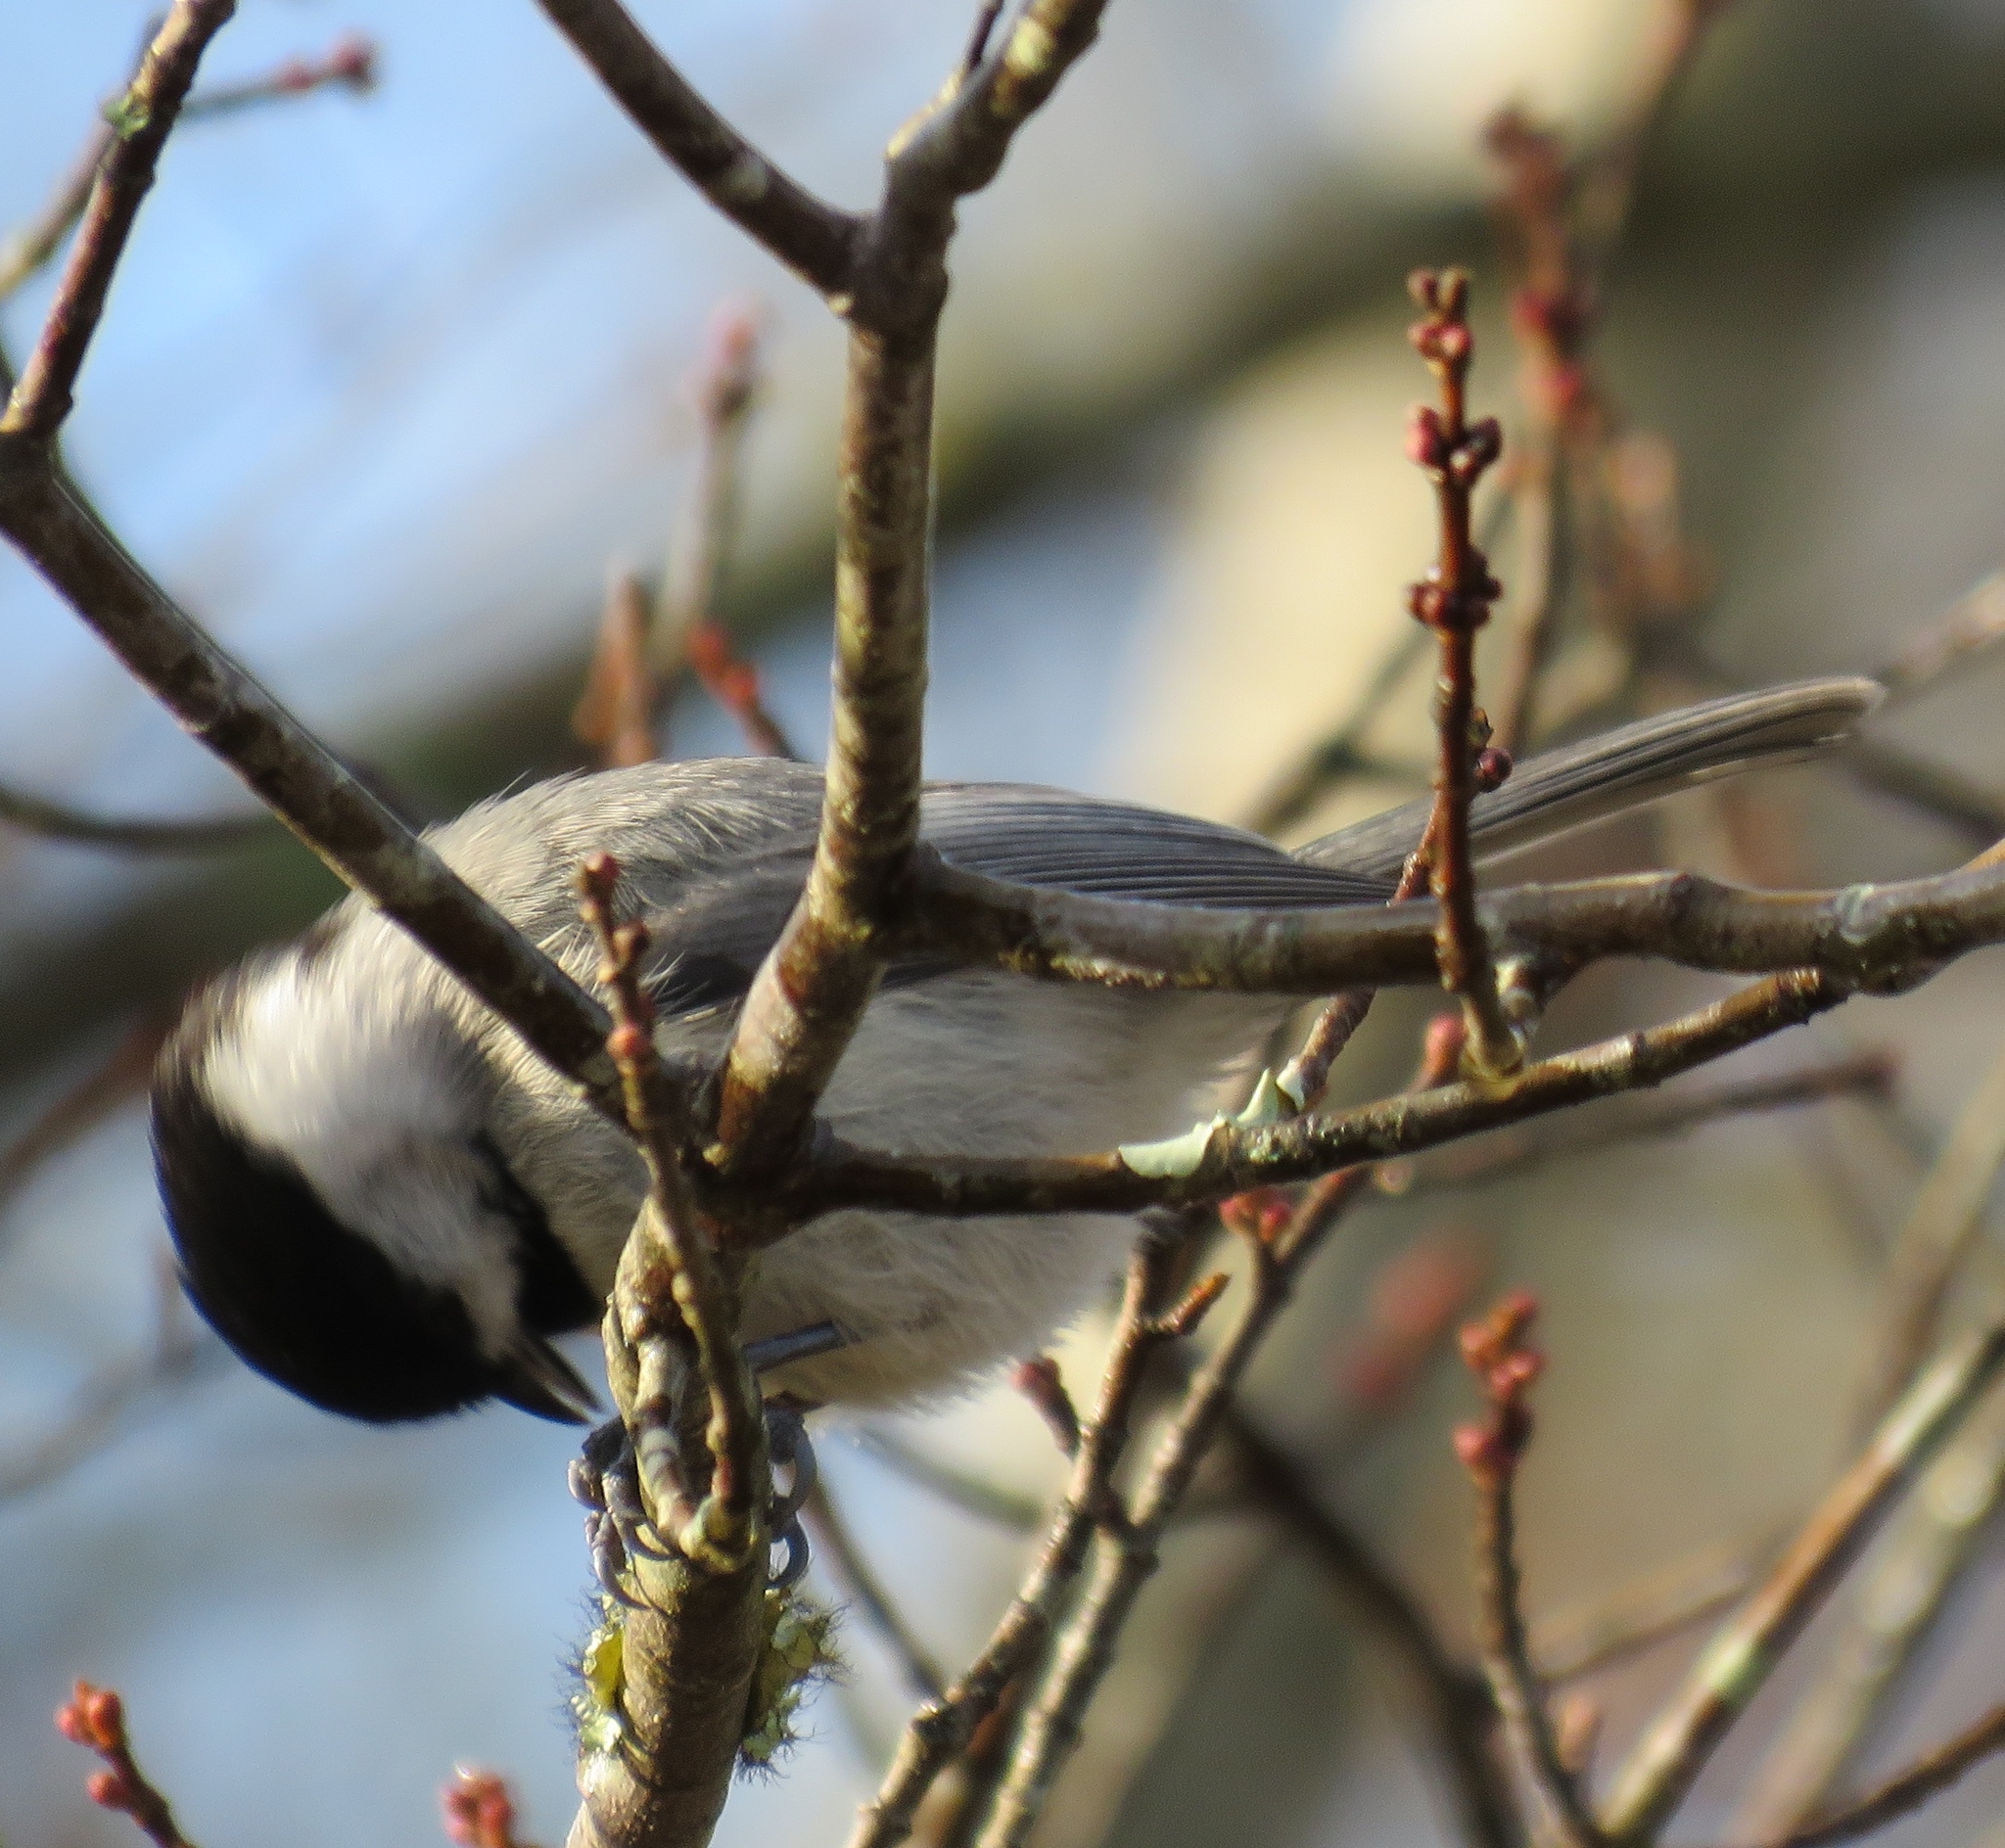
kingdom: Animalia
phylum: Chordata
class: Aves
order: Passeriformes
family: Paridae
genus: Poecile
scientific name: Poecile carolinensis
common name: Carolina chickadee
